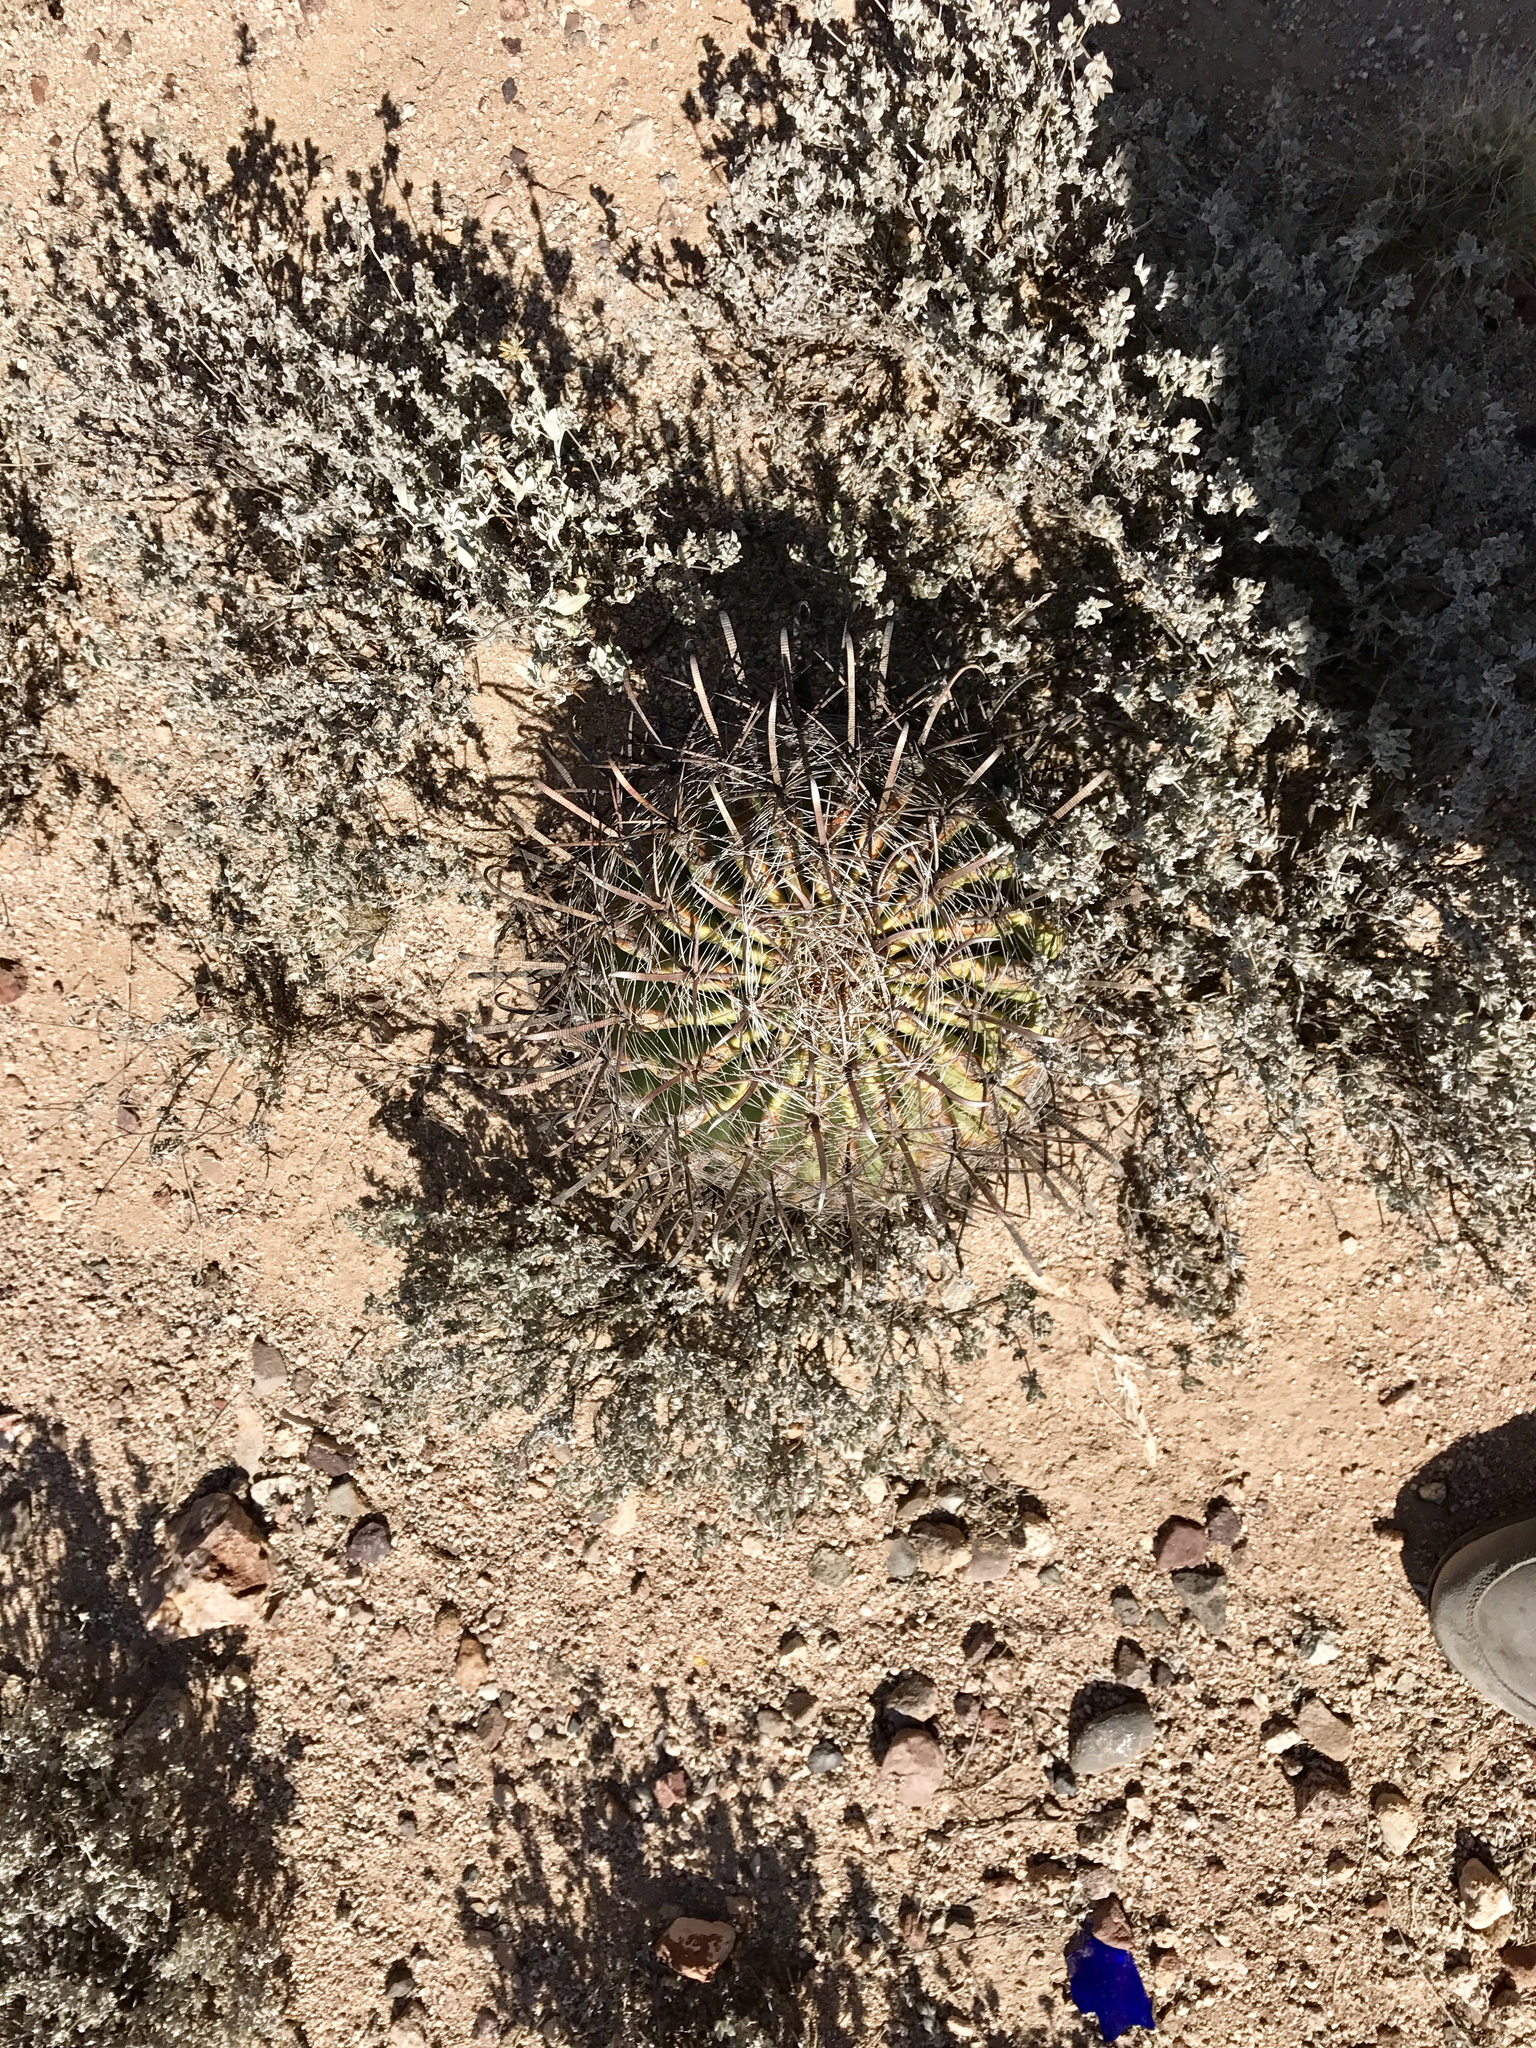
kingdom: Plantae
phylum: Tracheophyta
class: Magnoliopsida
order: Caryophyllales
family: Cactaceae
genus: Ferocactus
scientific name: Ferocactus wislizeni
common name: Candy barrel cactus
